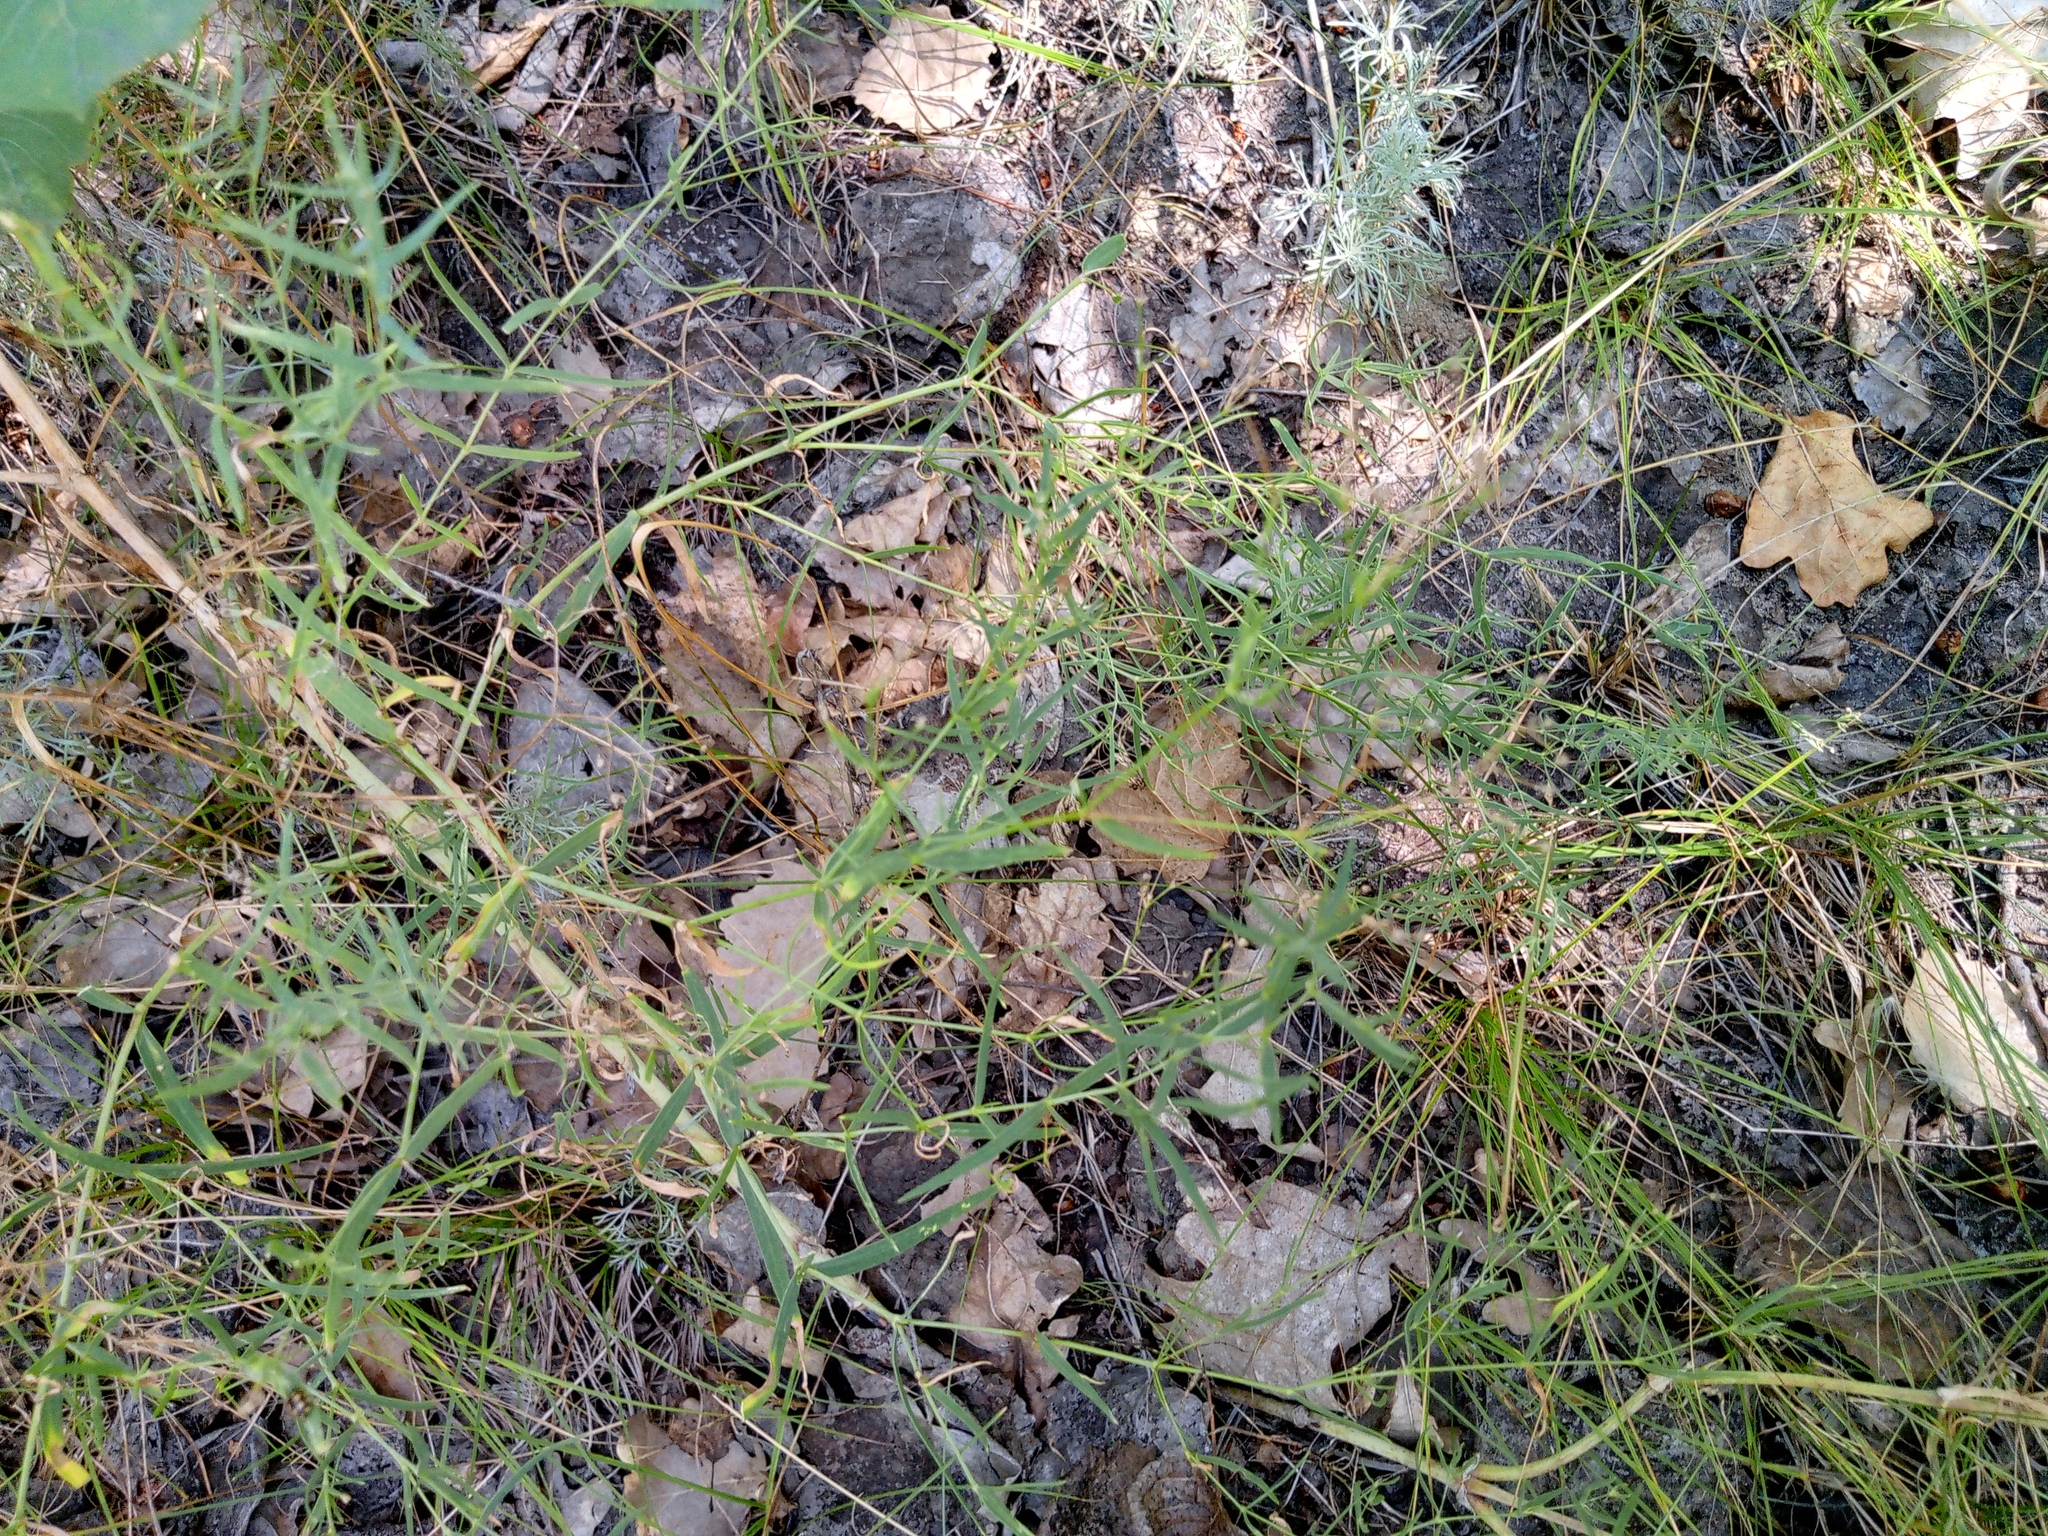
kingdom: Plantae
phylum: Tracheophyta
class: Magnoliopsida
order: Caryophyllales
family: Caryophyllaceae
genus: Gypsophila
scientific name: Gypsophila paniculata
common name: Baby's-breath
